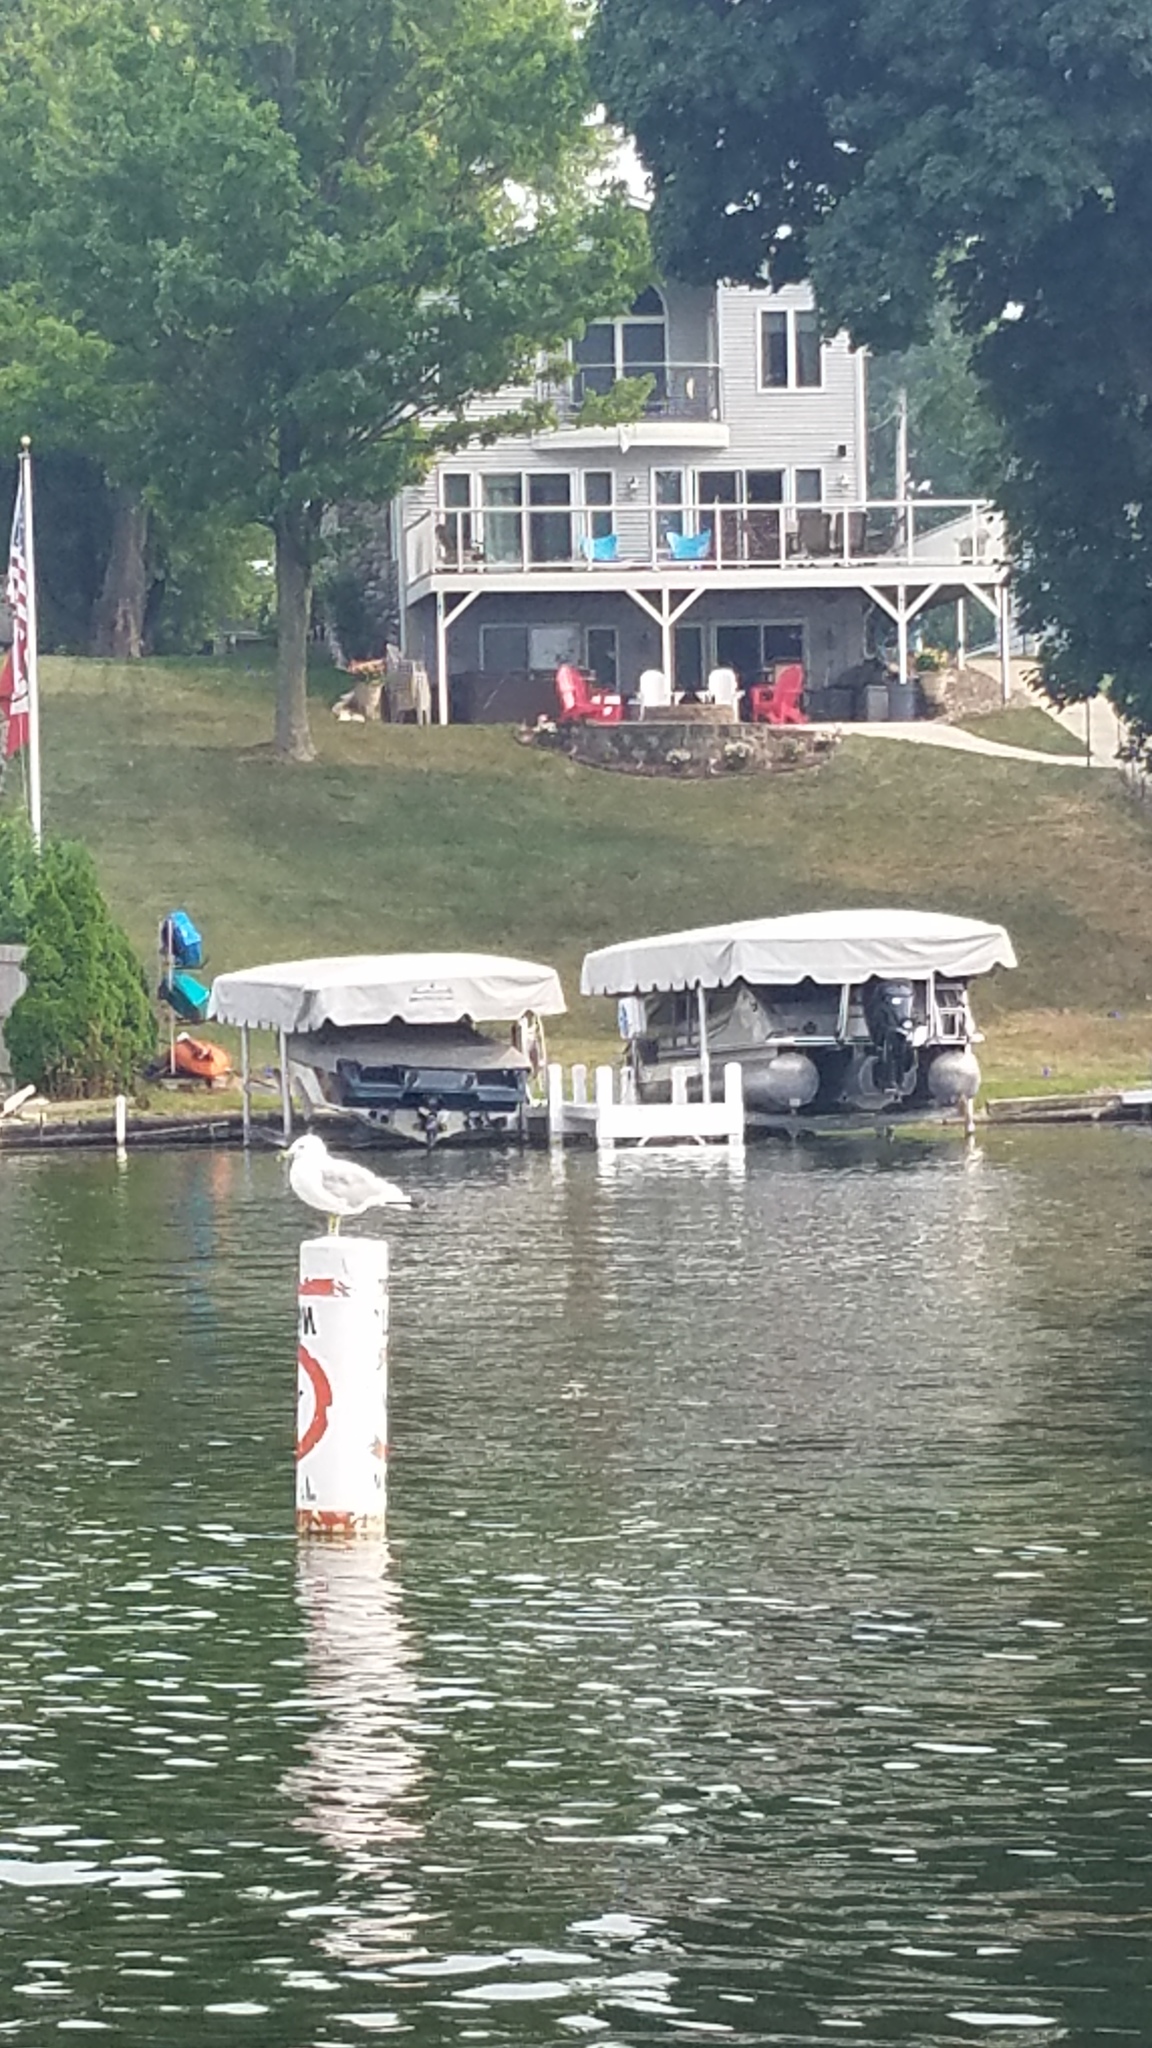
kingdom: Animalia
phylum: Chordata
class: Aves
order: Charadriiformes
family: Laridae
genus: Larus
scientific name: Larus delawarensis
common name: Ring-billed gull
